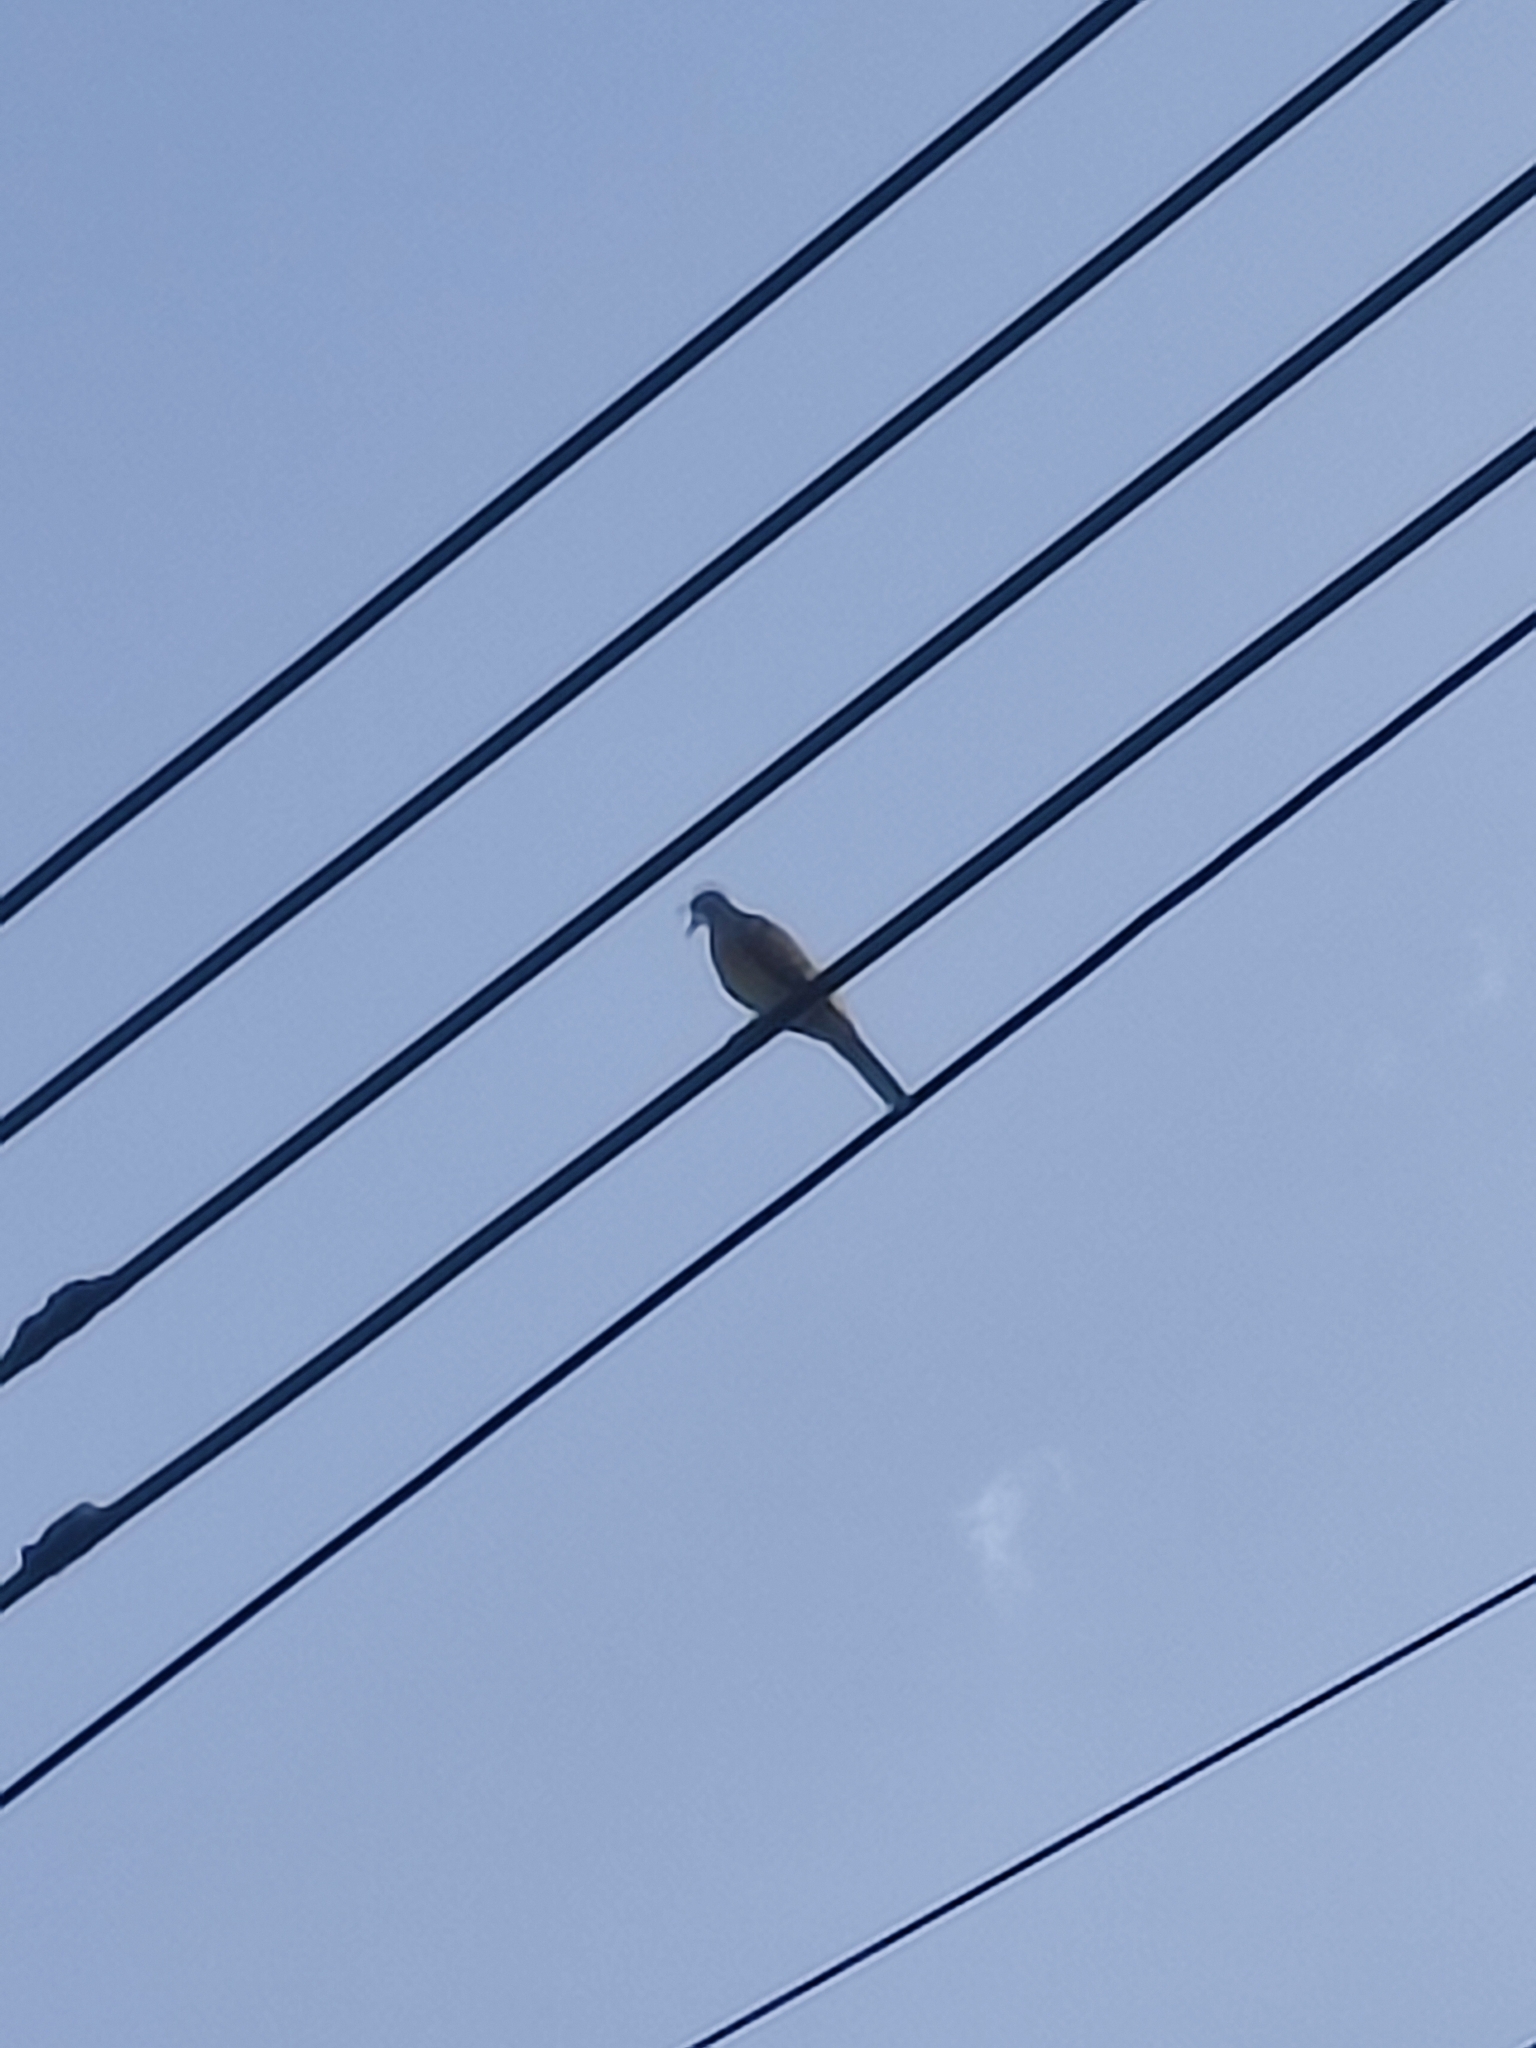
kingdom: Animalia
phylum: Chordata
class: Aves
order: Columbiformes
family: Columbidae
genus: Geopelia
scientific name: Geopelia striata
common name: Zebra dove
